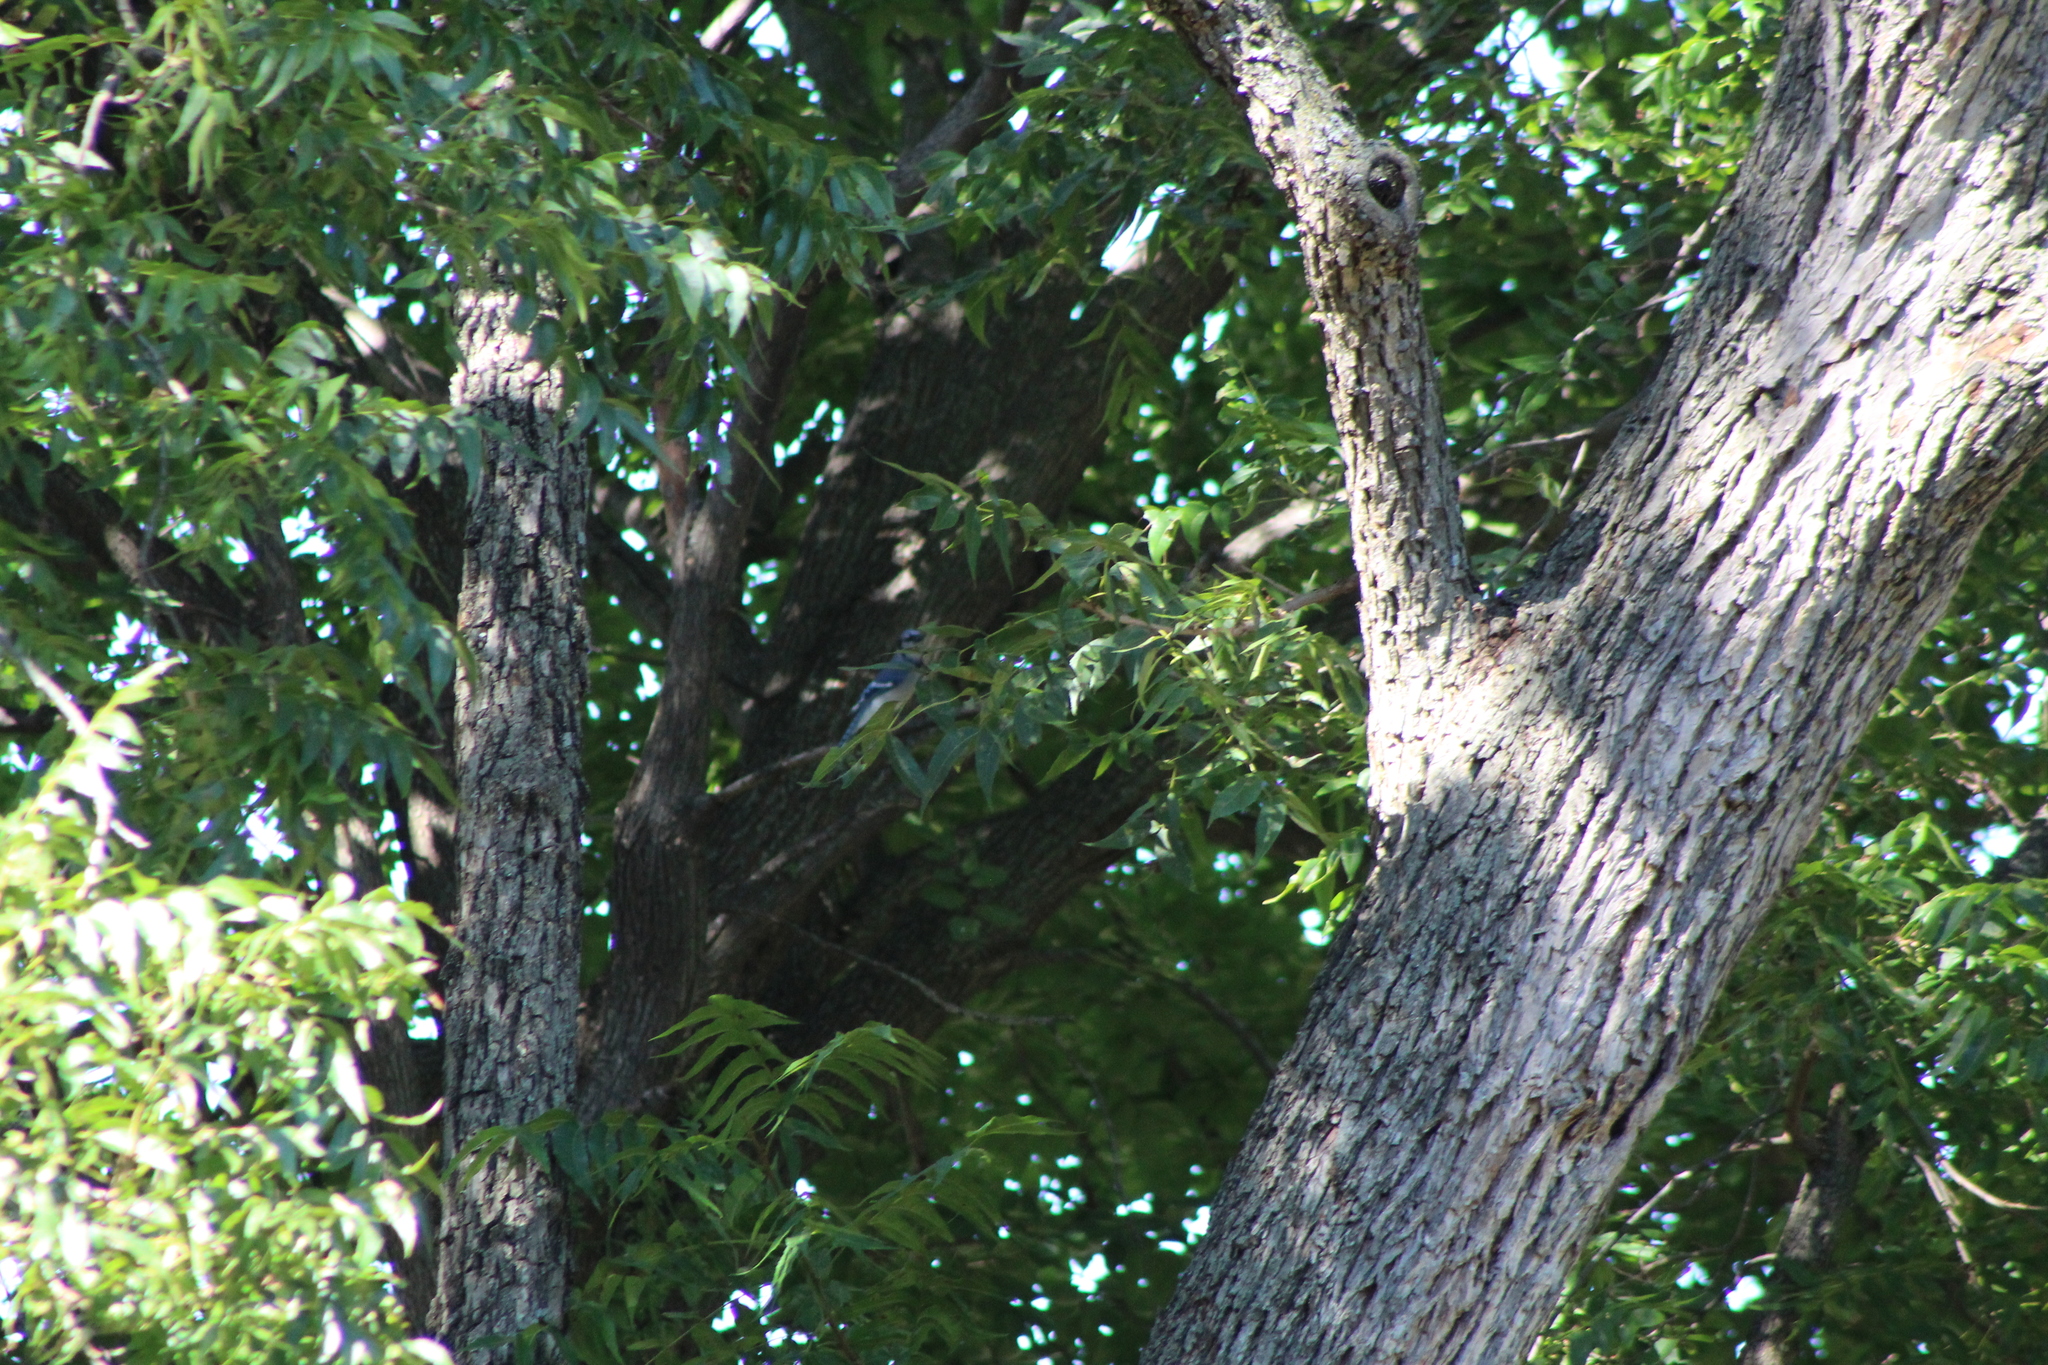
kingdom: Animalia
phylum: Chordata
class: Aves
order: Passeriformes
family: Corvidae
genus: Cyanocitta
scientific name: Cyanocitta cristata
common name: Blue jay
